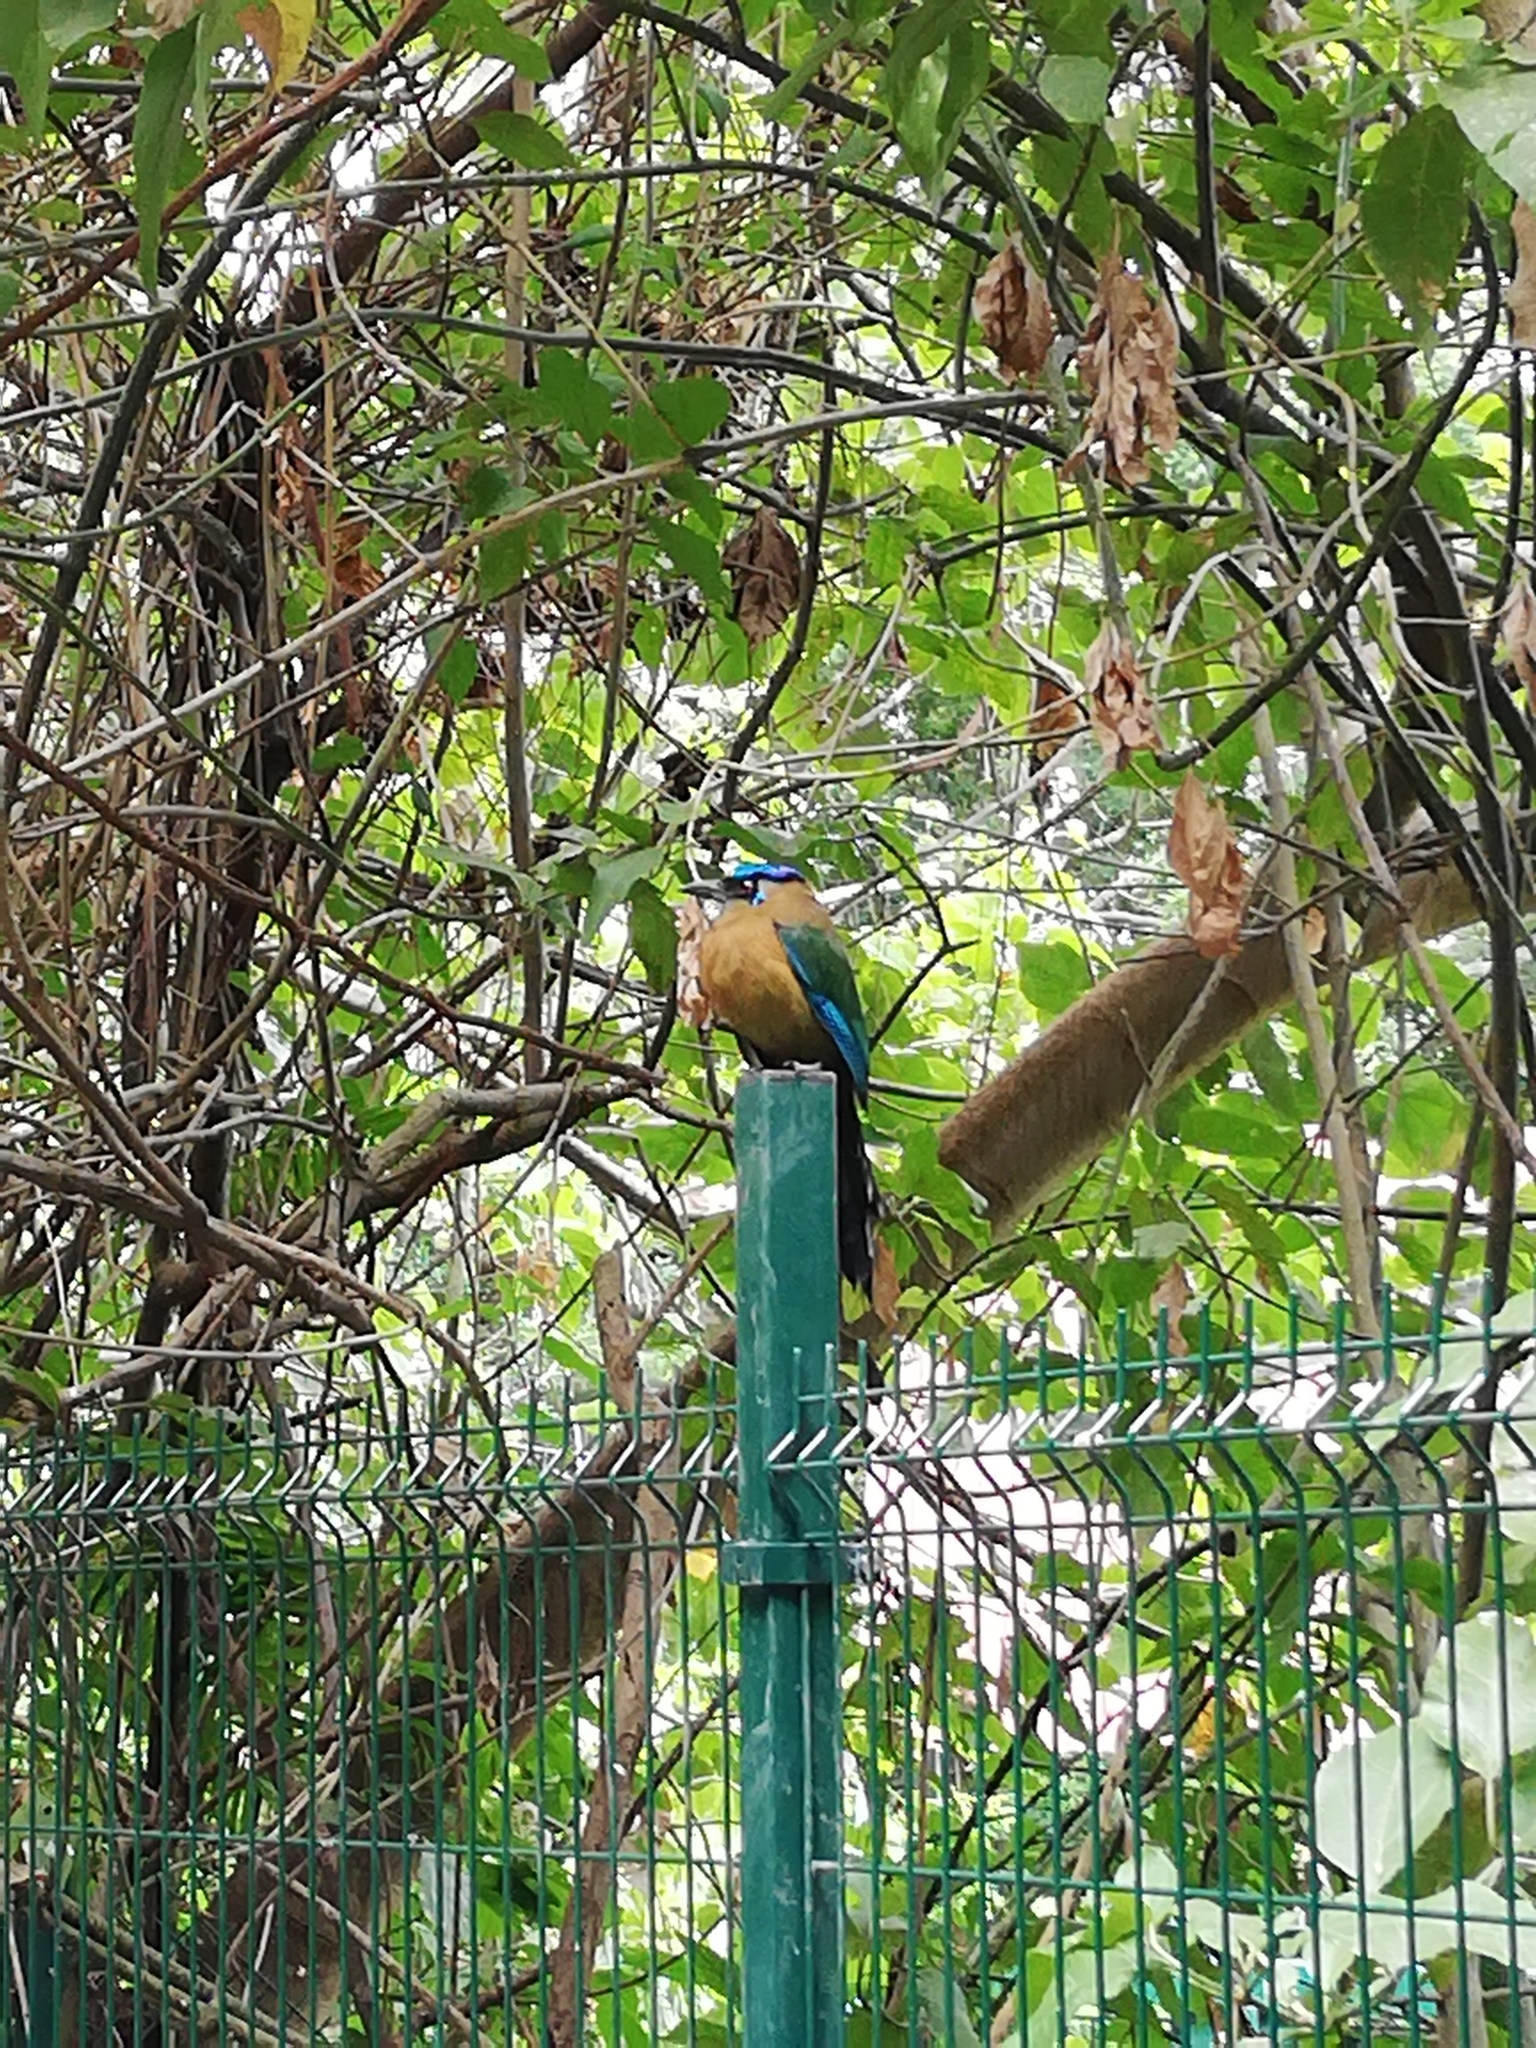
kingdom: Animalia
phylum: Chordata
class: Aves
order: Coraciiformes
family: Momotidae
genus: Momotus
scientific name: Momotus lessonii
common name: Lesson's motmot
